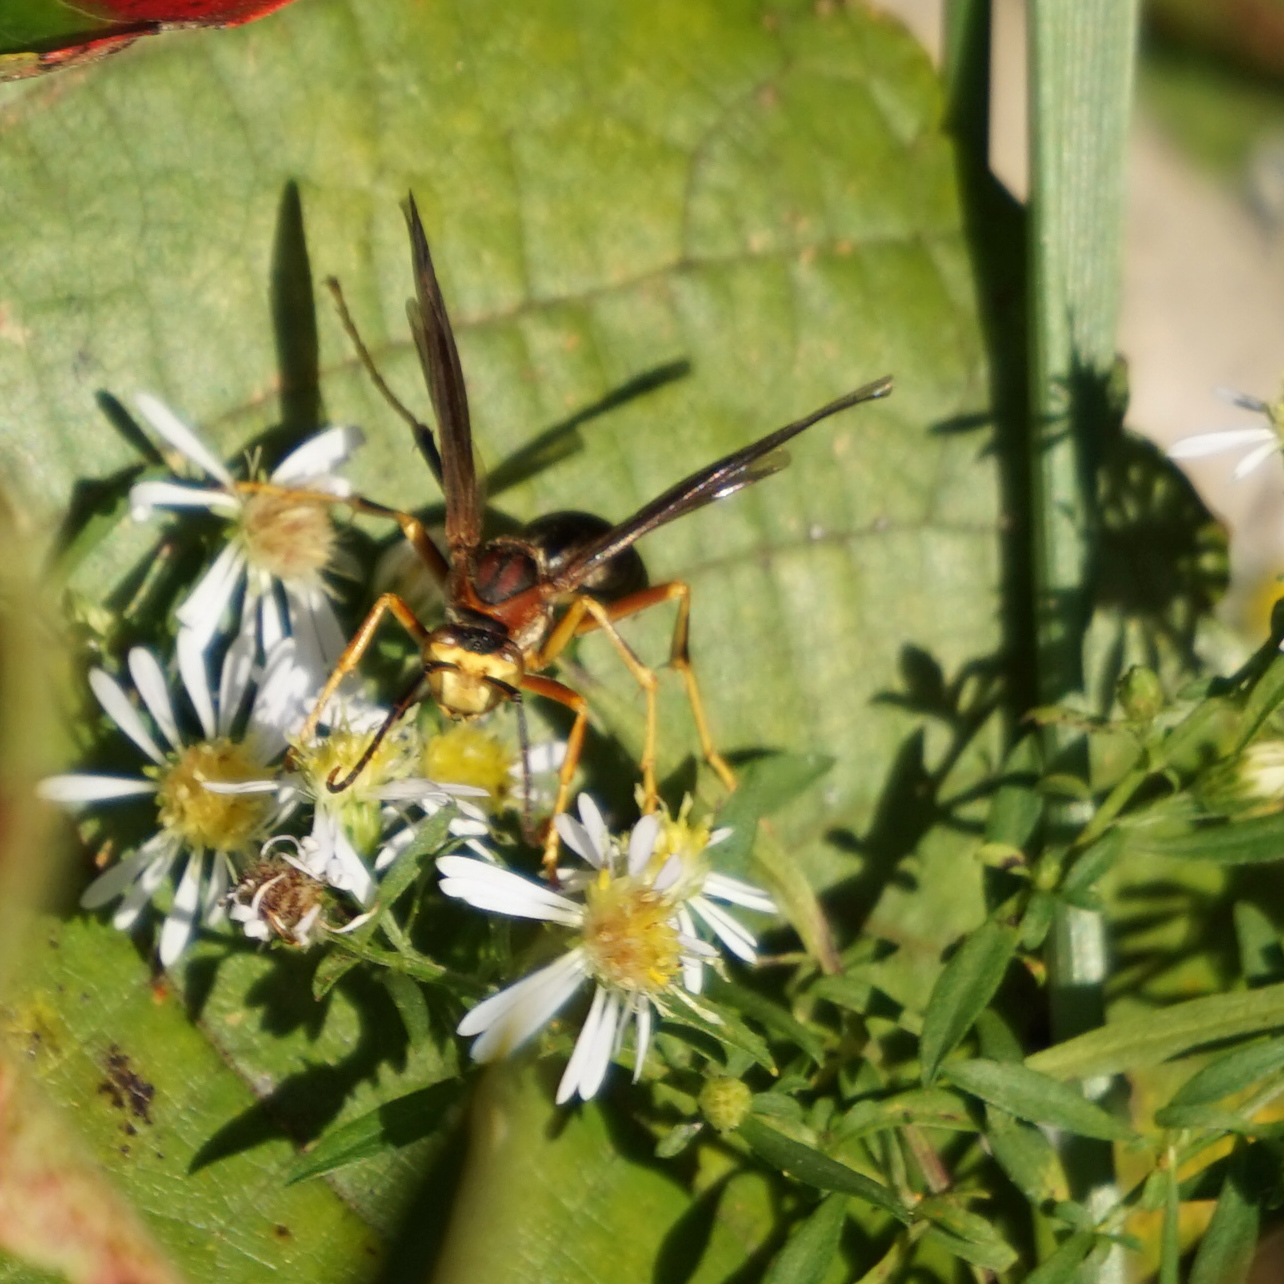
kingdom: Animalia
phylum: Arthropoda
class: Insecta
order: Hymenoptera
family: Eumenidae
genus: Polistes
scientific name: Polistes metricus
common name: Metric paper wasp
